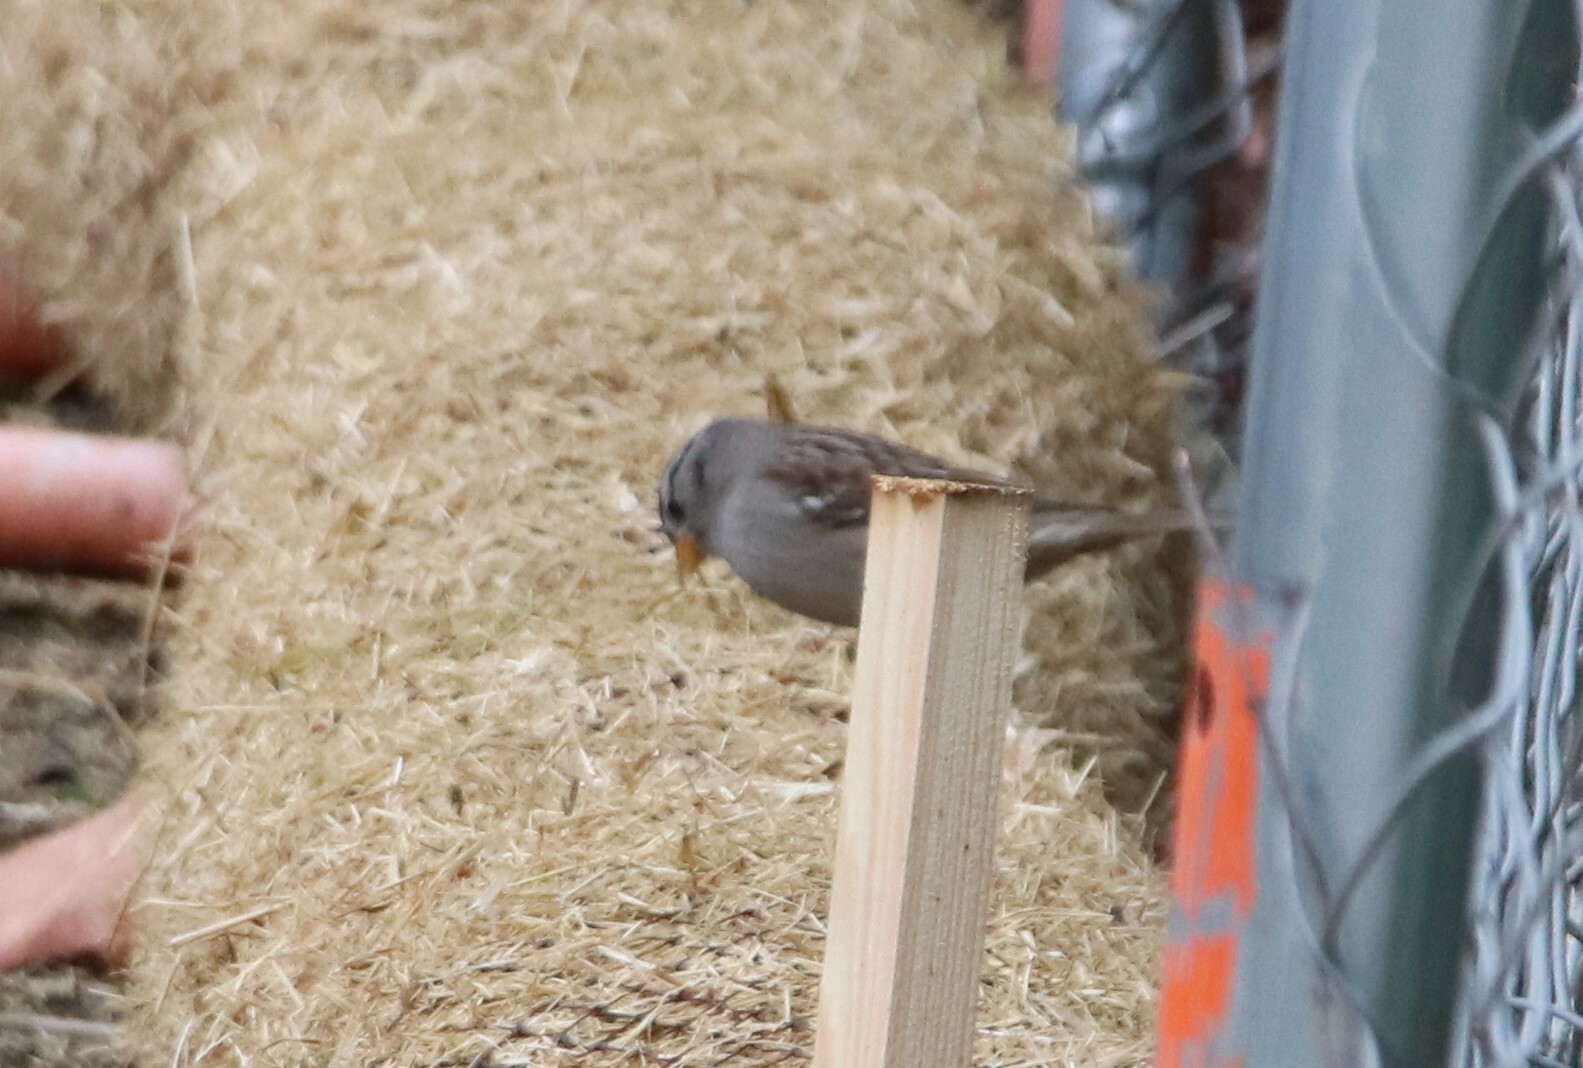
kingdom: Animalia
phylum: Chordata
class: Aves
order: Passeriformes
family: Passerellidae
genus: Zonotrichia
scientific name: Zonotrichia leucophrys
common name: White-crowned sparrow
